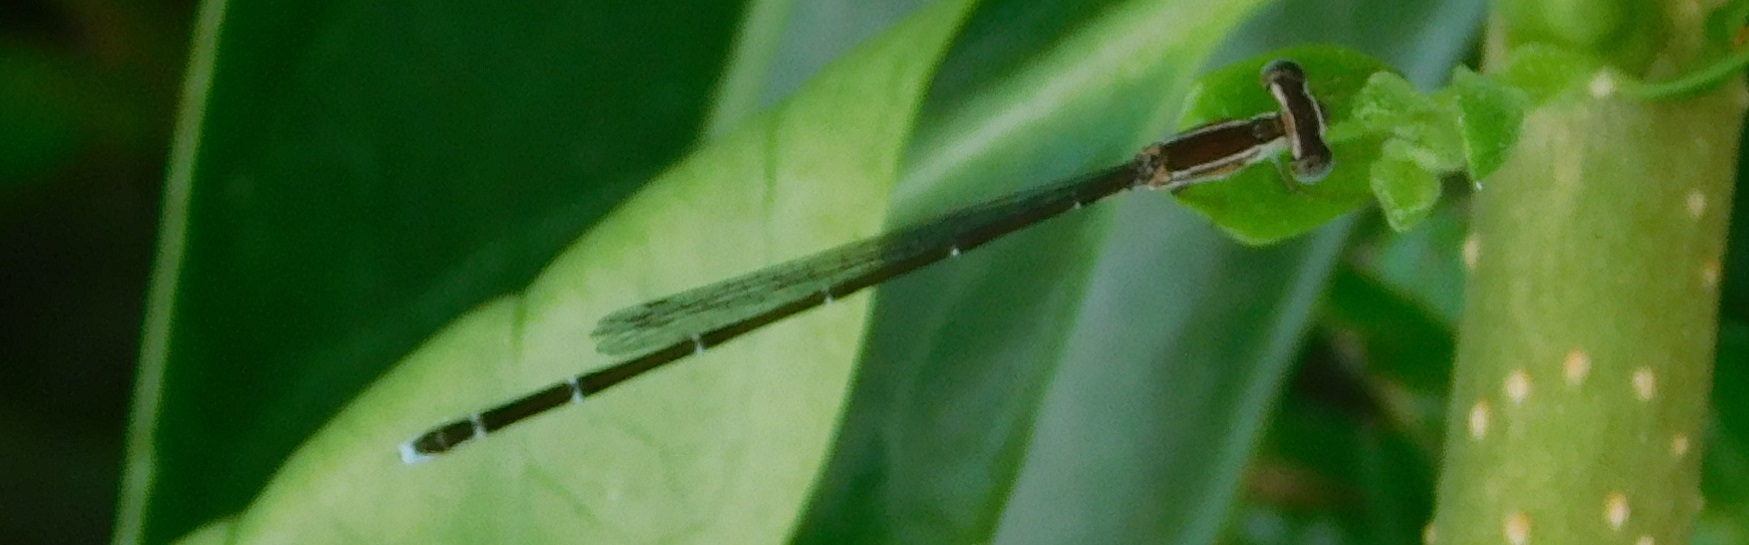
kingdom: Animalia
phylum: Arthropoda
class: Insecta
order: Odonata
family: Coenagrionidae
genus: Nehalennia
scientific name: Nehalennia pallidula
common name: Everglades sprite
